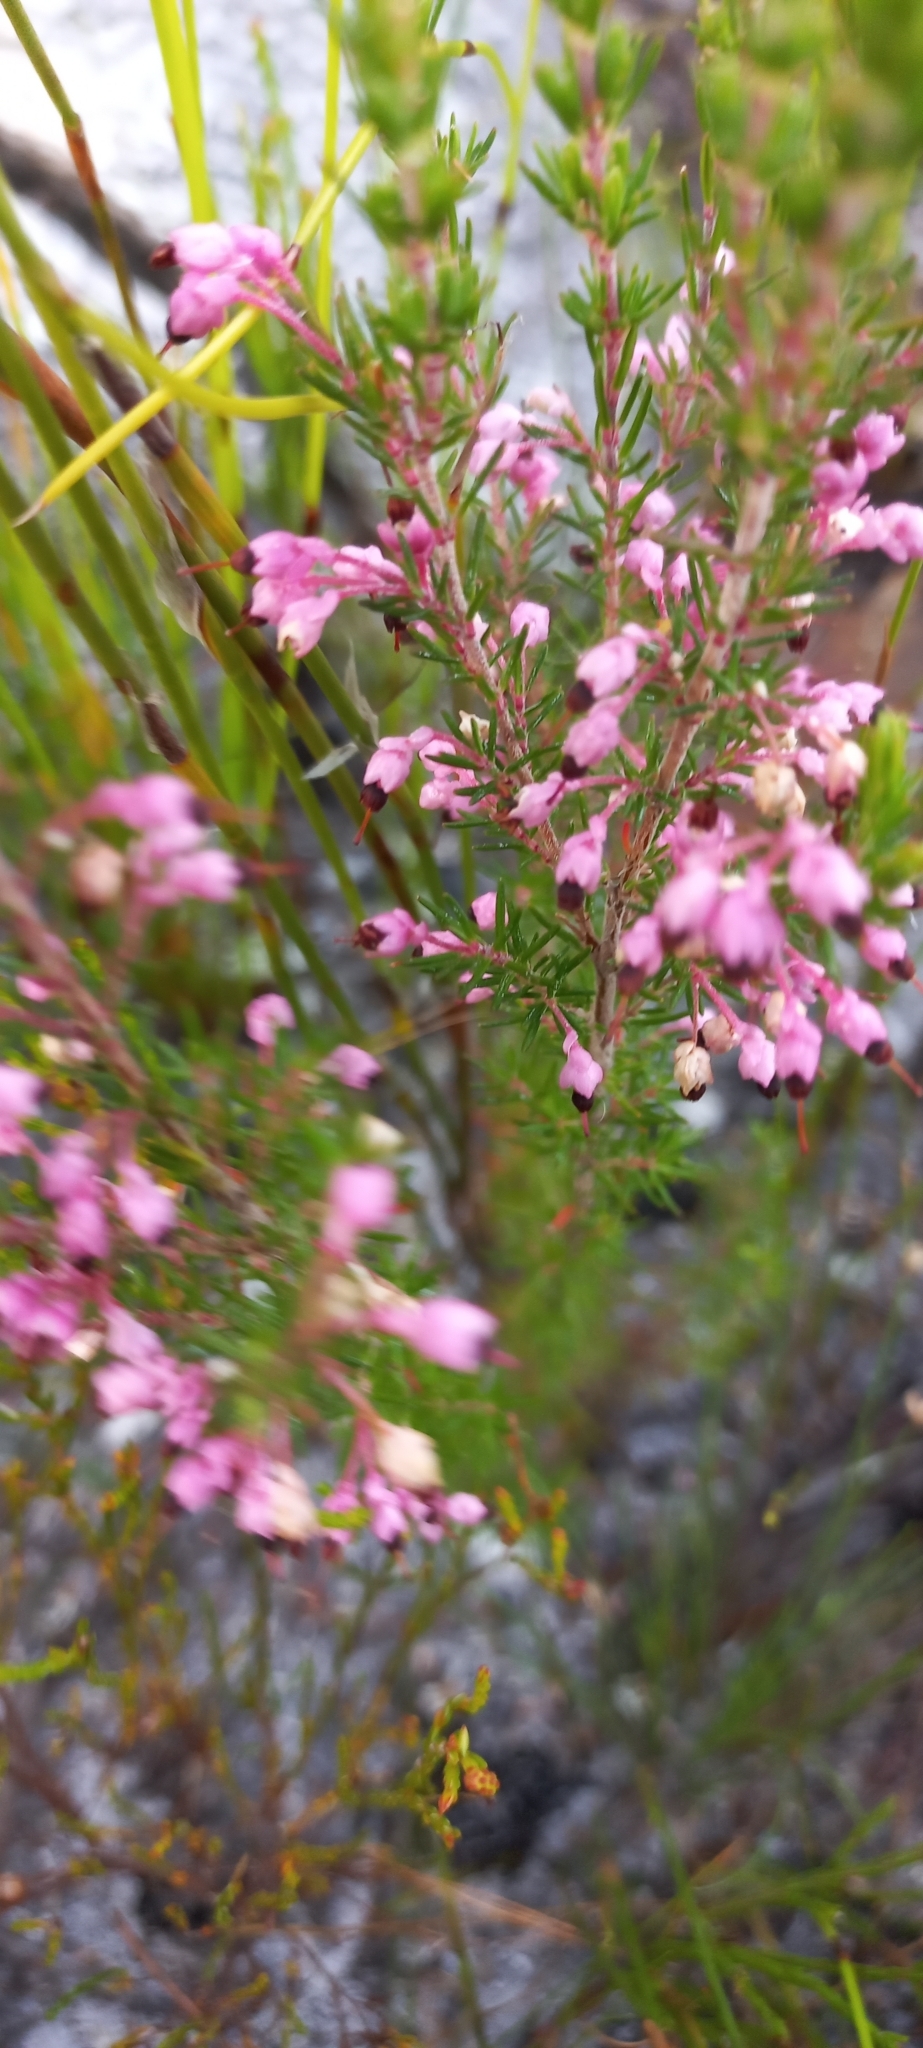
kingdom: Plantae
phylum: Tracheophyta
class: Magnoliopsida
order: Ericales
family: Ericaceae
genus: Erica
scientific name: Erica placentiflora
